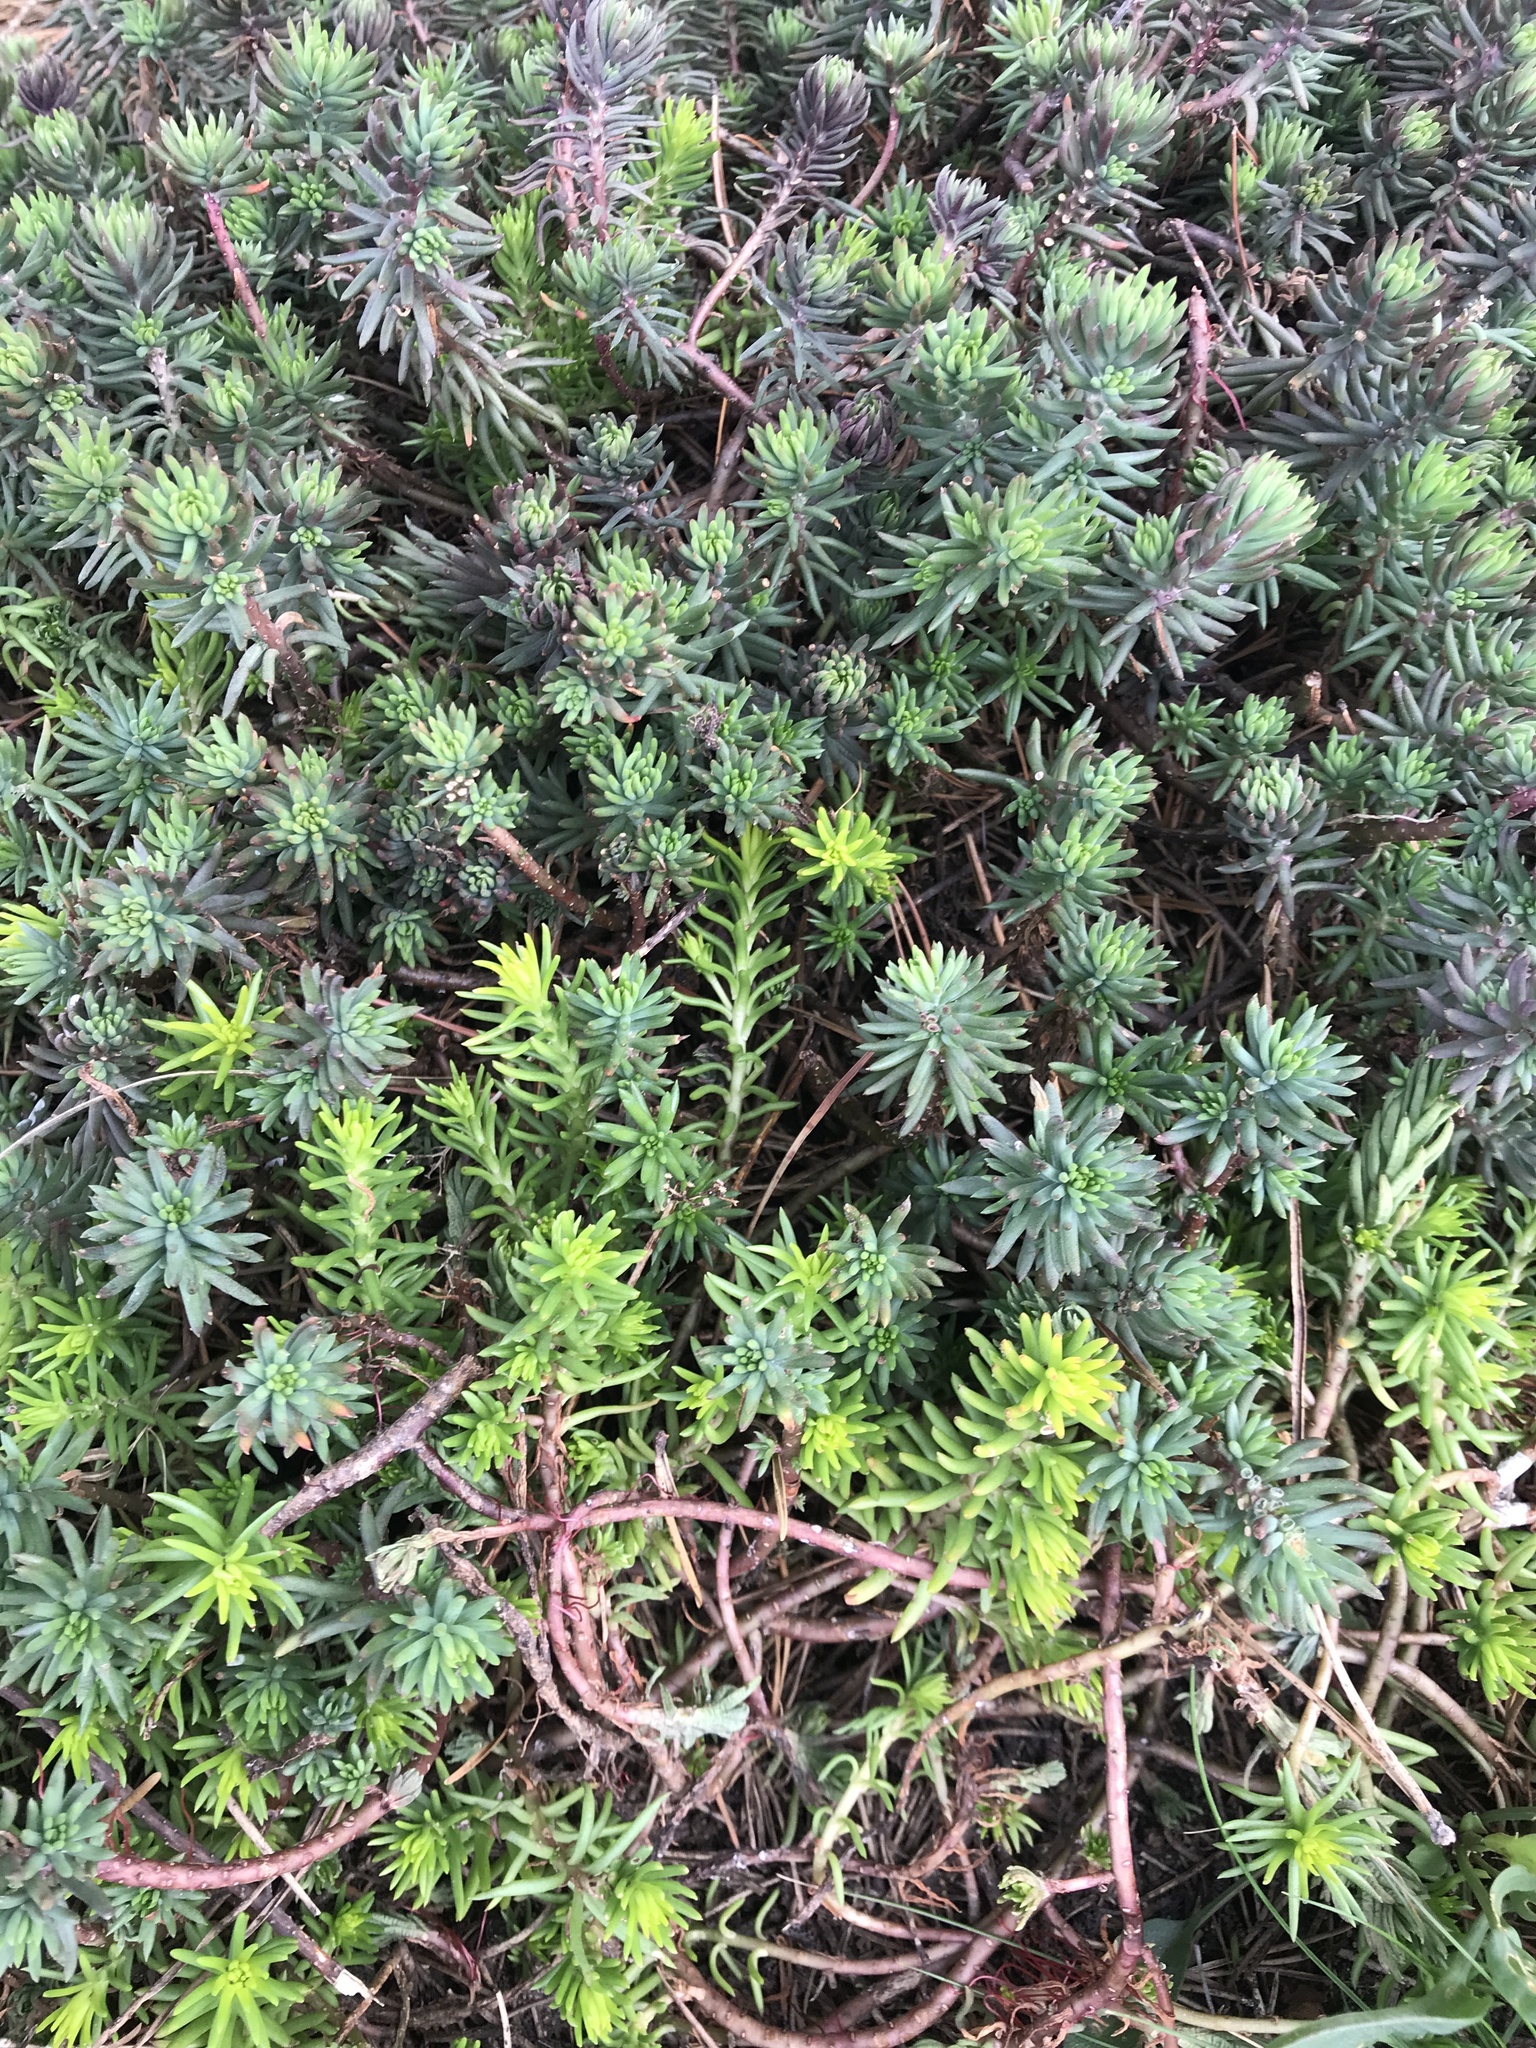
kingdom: Plantae
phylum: Tracheophyta
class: Magnoliopsida
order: Saxifragales
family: Crassulaceae
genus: Petrosedum
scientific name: Petrosedum rupestre
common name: Jenny's stonecrop
